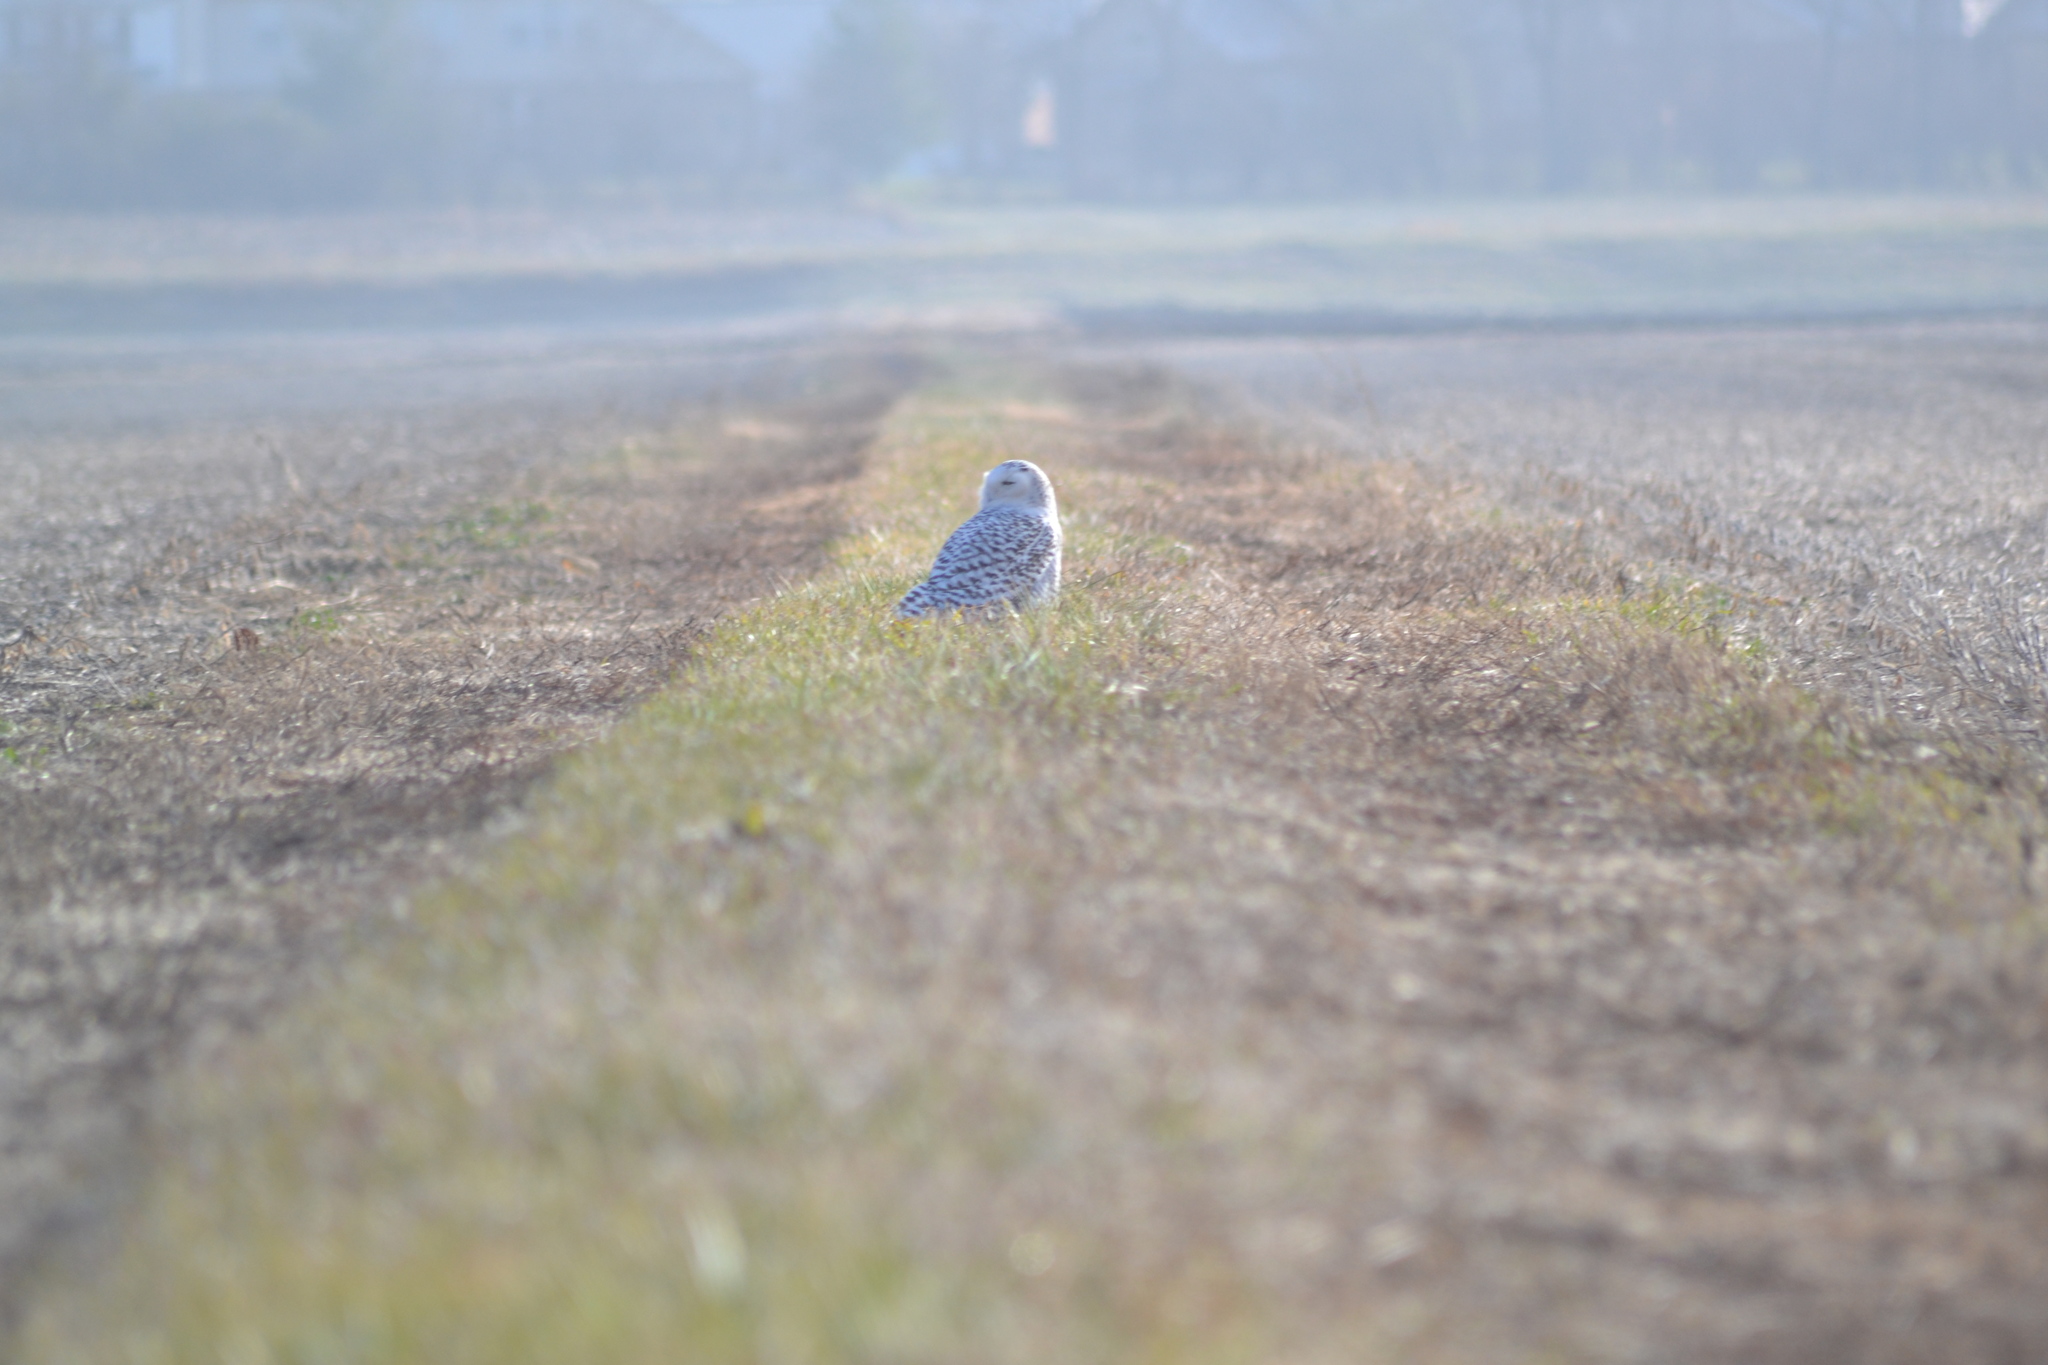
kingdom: Animalia
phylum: Chordata
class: Aves
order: Strigiformes
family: Strigidae
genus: Bubo
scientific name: Bubo scandiacus
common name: Snowy owl
